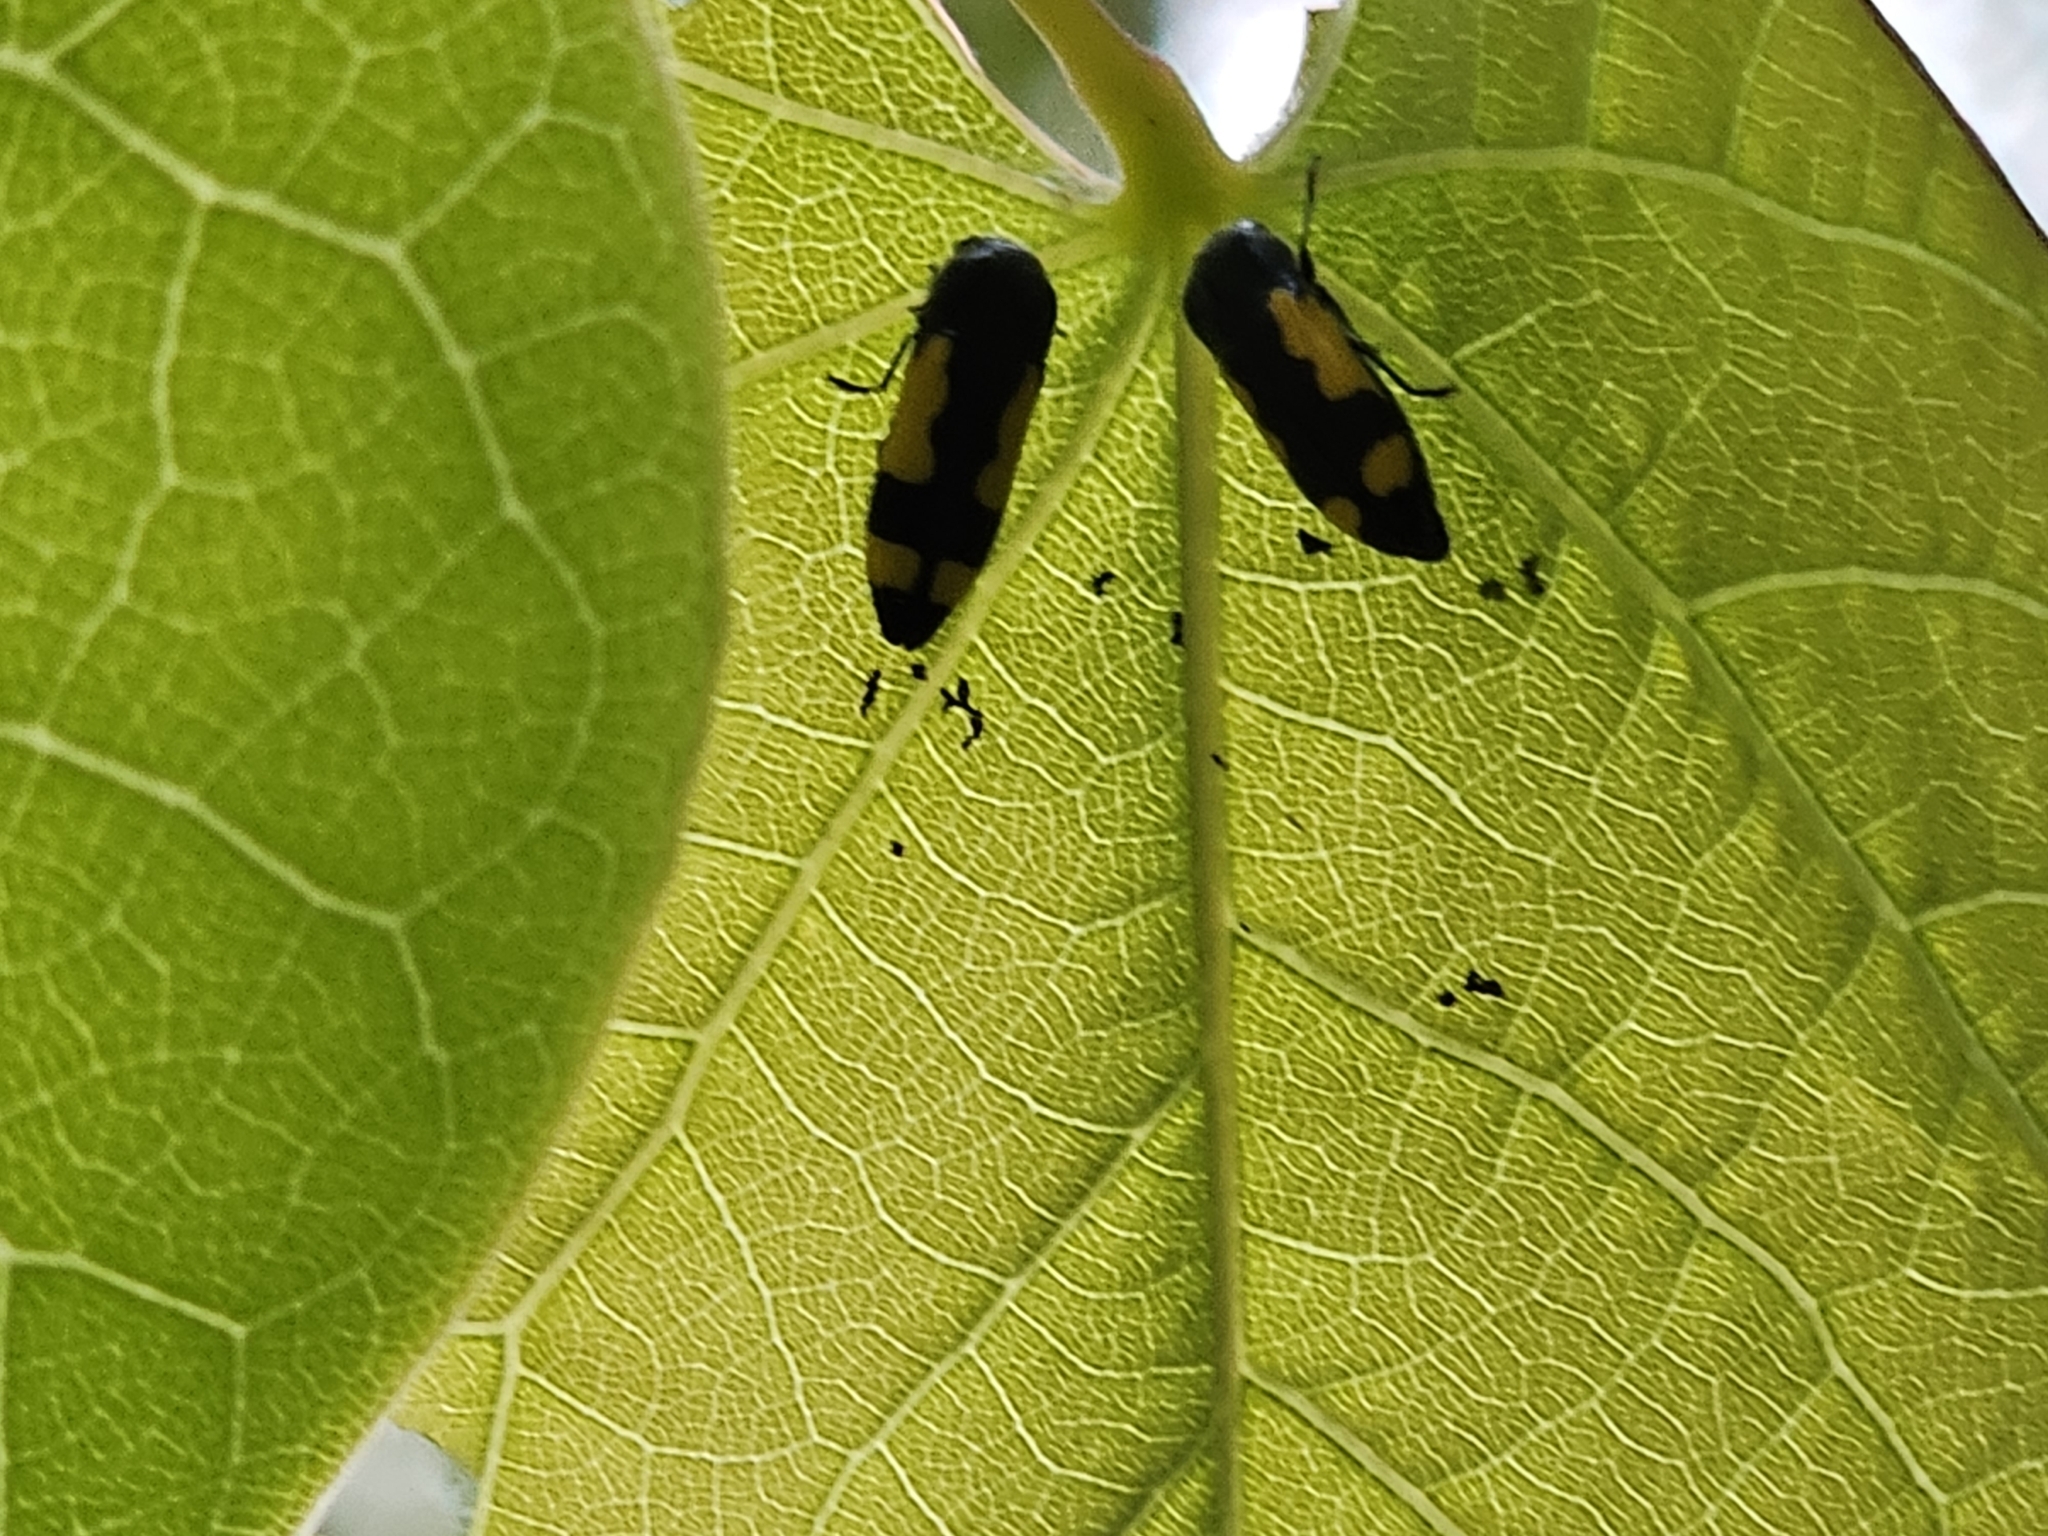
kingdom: Animalia
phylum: Arthropoda
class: Insecta
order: Coleoptera
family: Buprestidae
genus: Ptosima
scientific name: Ptosima gibbicollis
